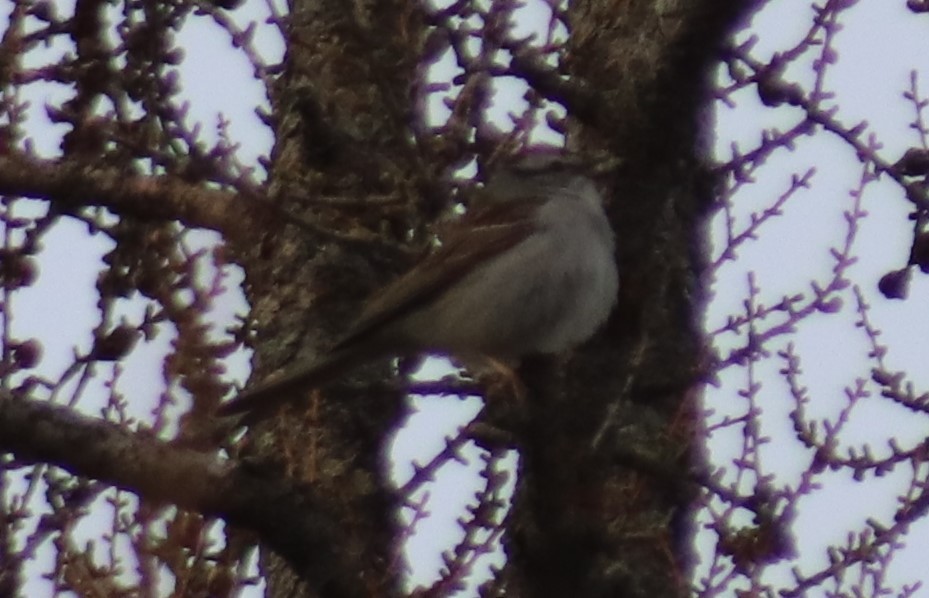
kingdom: Animalia
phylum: Chordata
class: Aves
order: Passeriformes
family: Passerellidae
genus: Spizella
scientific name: Spizella passerina
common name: Chipping sparrow
